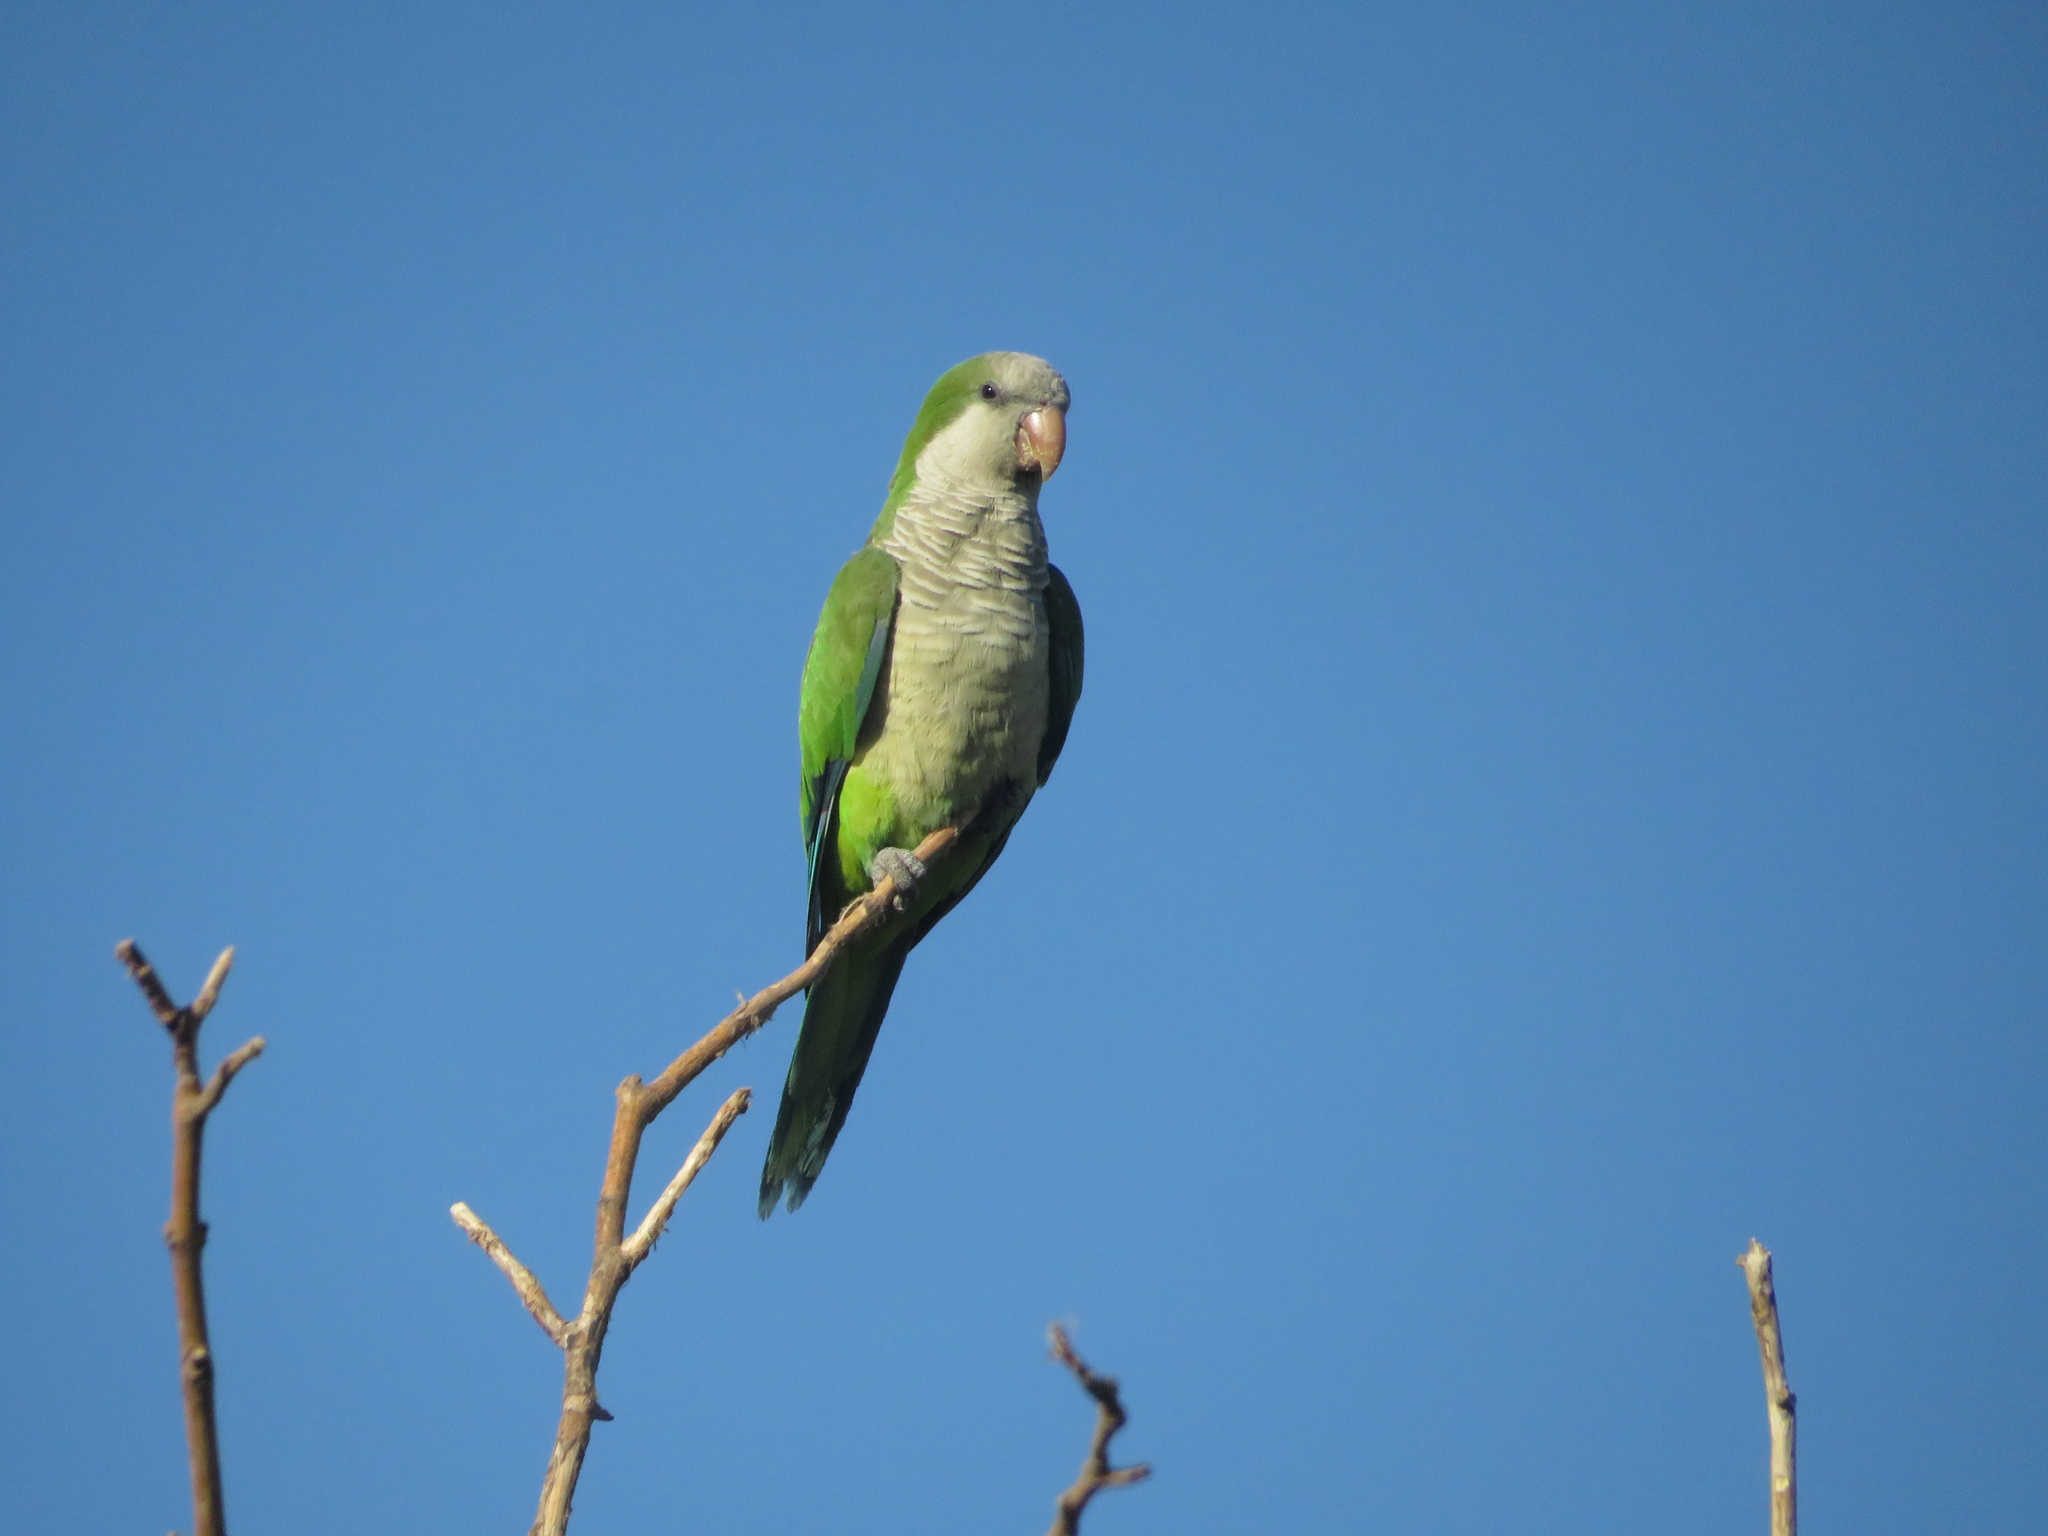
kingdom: Animalia
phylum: Chordata
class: Aves
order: Psittaciformes
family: Psittacidae
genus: Myiopsitta
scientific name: Myiopsitta monachus
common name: Monk parakeet
